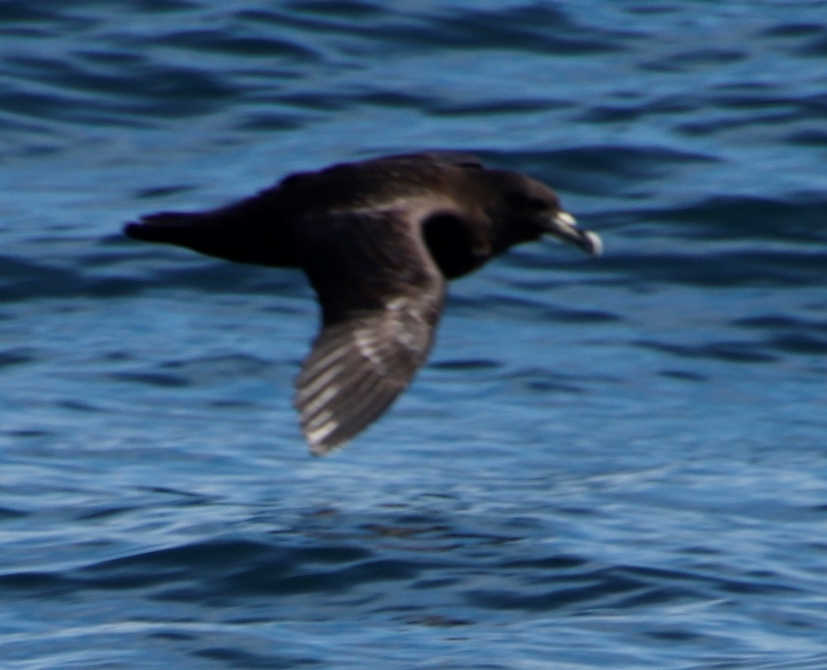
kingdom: Animalia
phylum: Chordata
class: Aves
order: Procellariiformes
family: Procellariidae
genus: Procellaria
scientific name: Procellaria aequinoctialis
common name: White-chinned petrel
